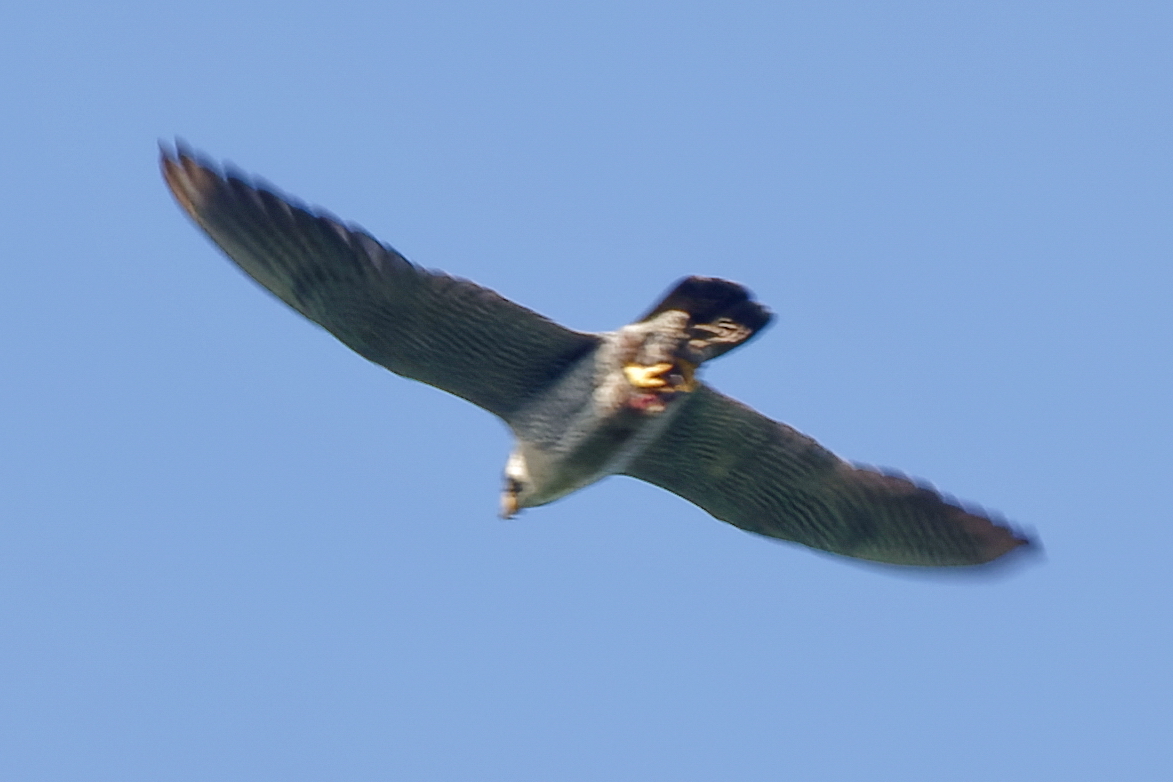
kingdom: Animalia
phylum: Chordata
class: Aves
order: Falconiformes
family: Falconidae
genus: Falco
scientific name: Falco peregrinus
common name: Peregrine falcon
